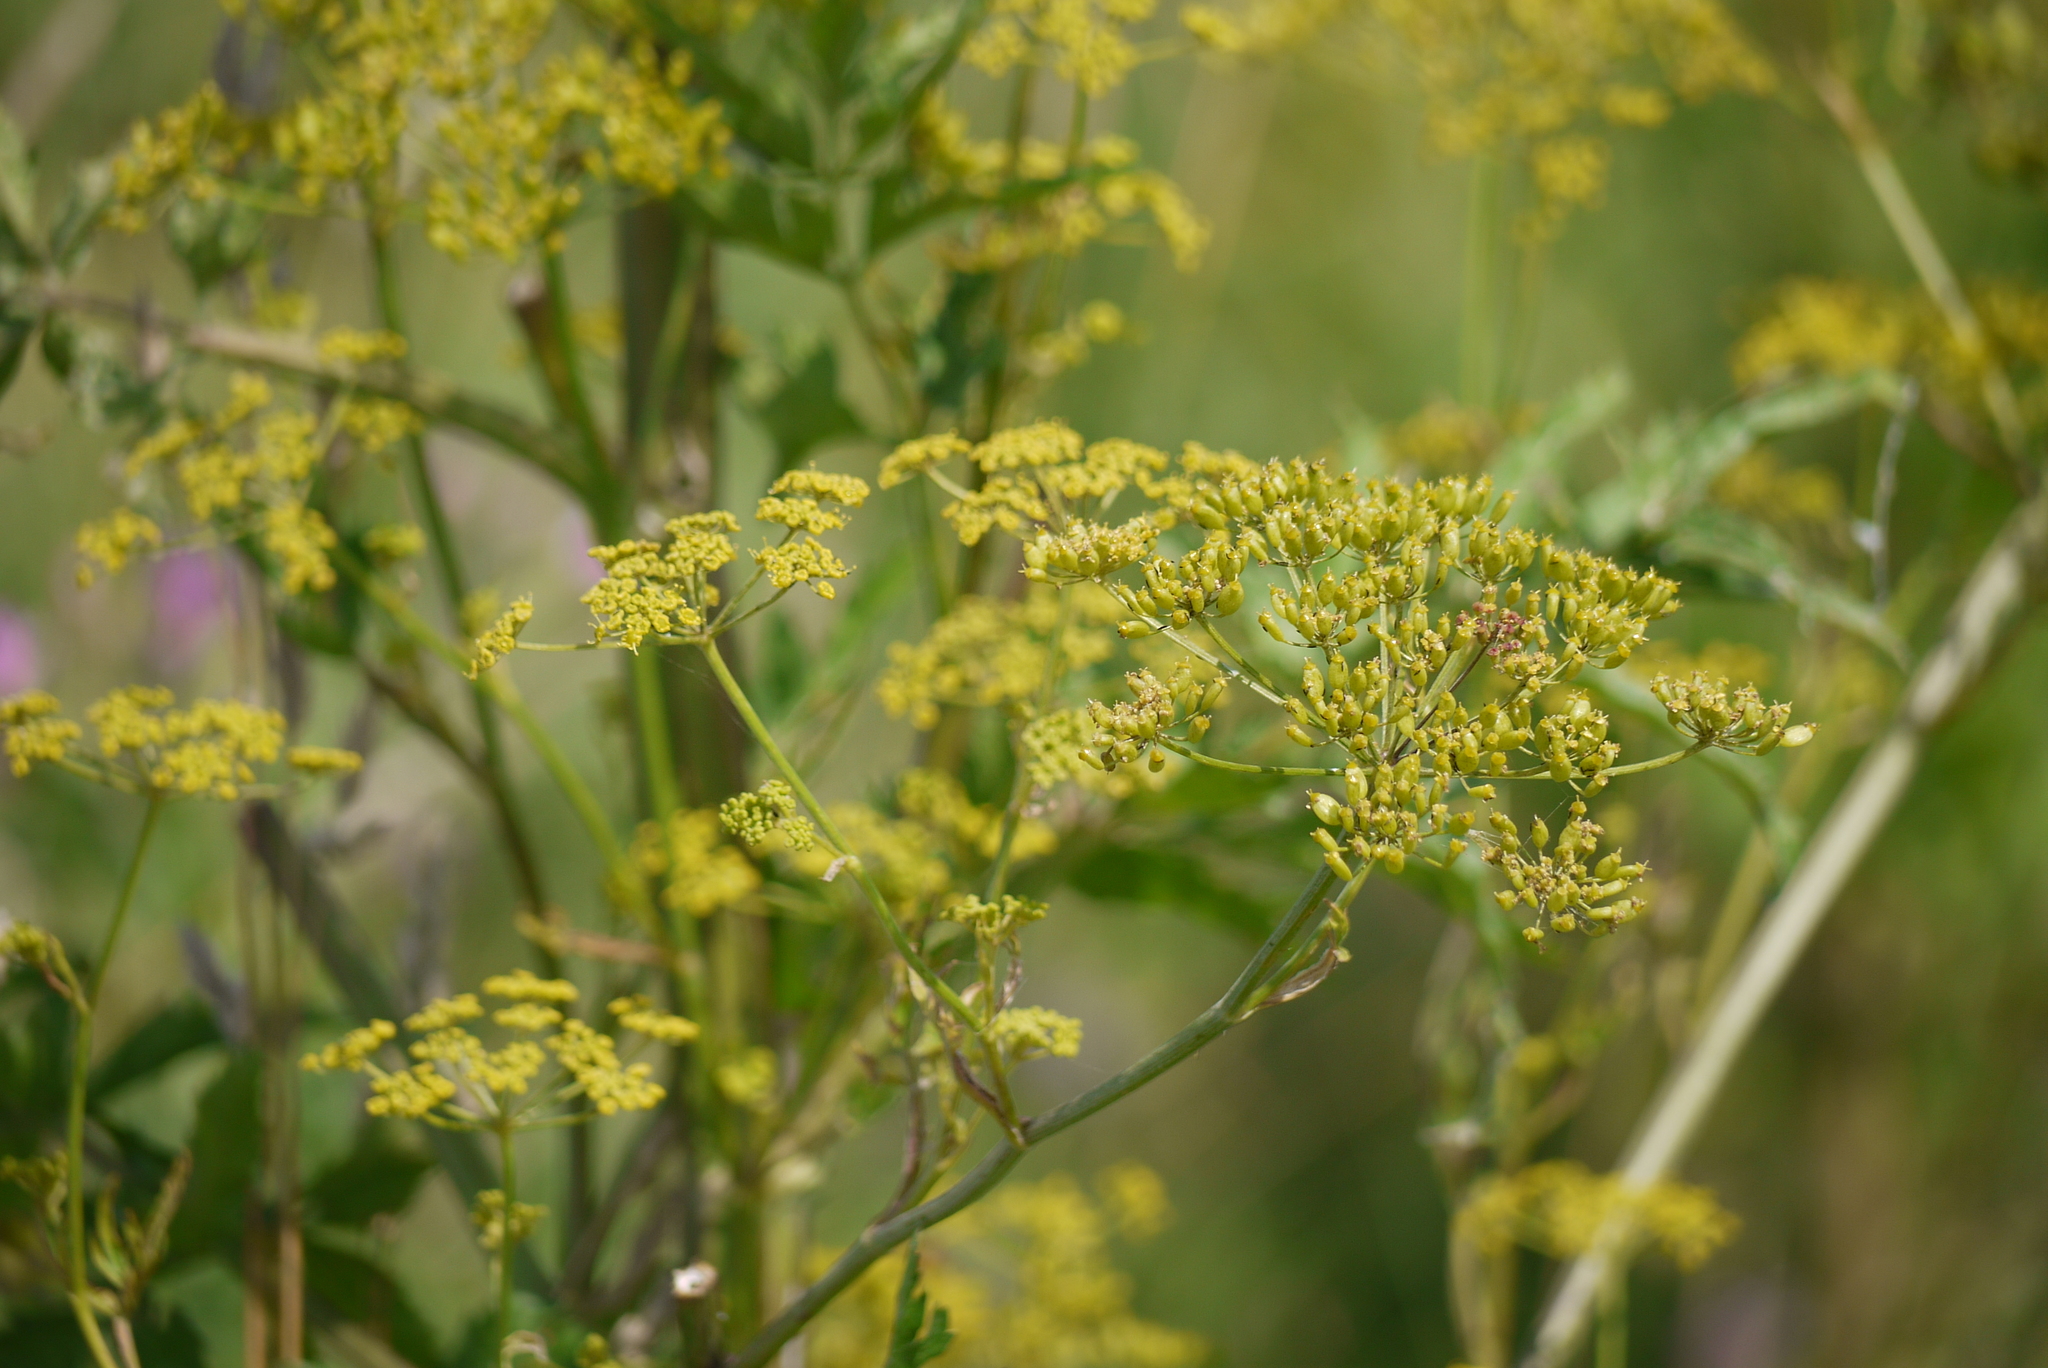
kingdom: Plantae
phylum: Tracheophyta
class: Magnoliopsida
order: Apiales
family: Apiaceae
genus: Pastinaca
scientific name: Pastinaca sativa
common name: Wild parsnip
